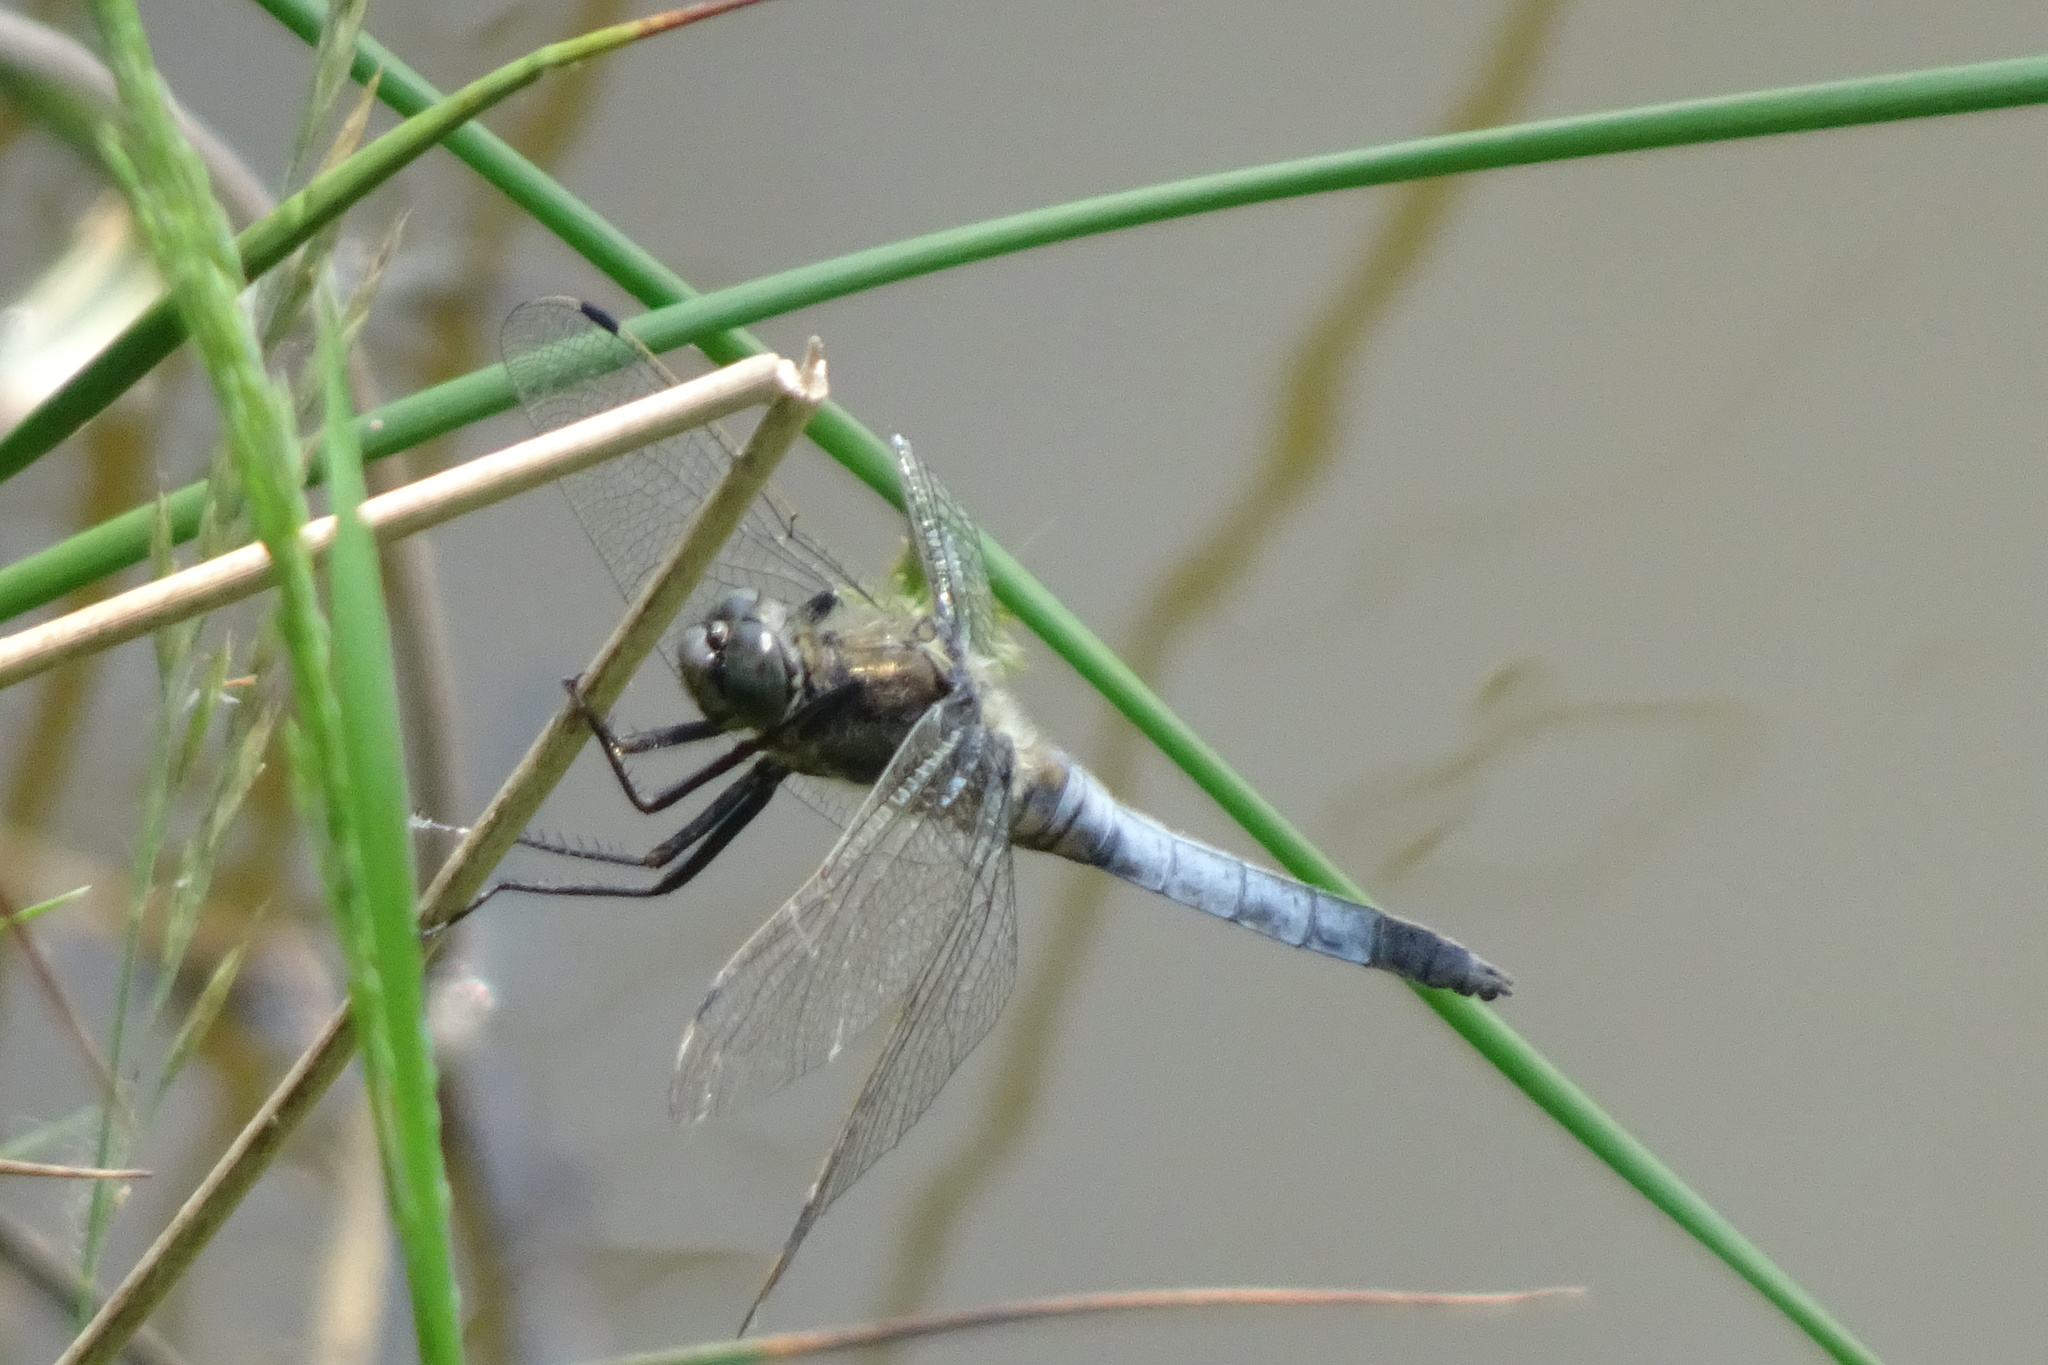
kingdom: Animalia
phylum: Arthropoda
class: Insecta
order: Odonata
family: Libellulidae
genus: Orthetrum
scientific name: Orthetrum cancellatum
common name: Black-tailed skimmer
